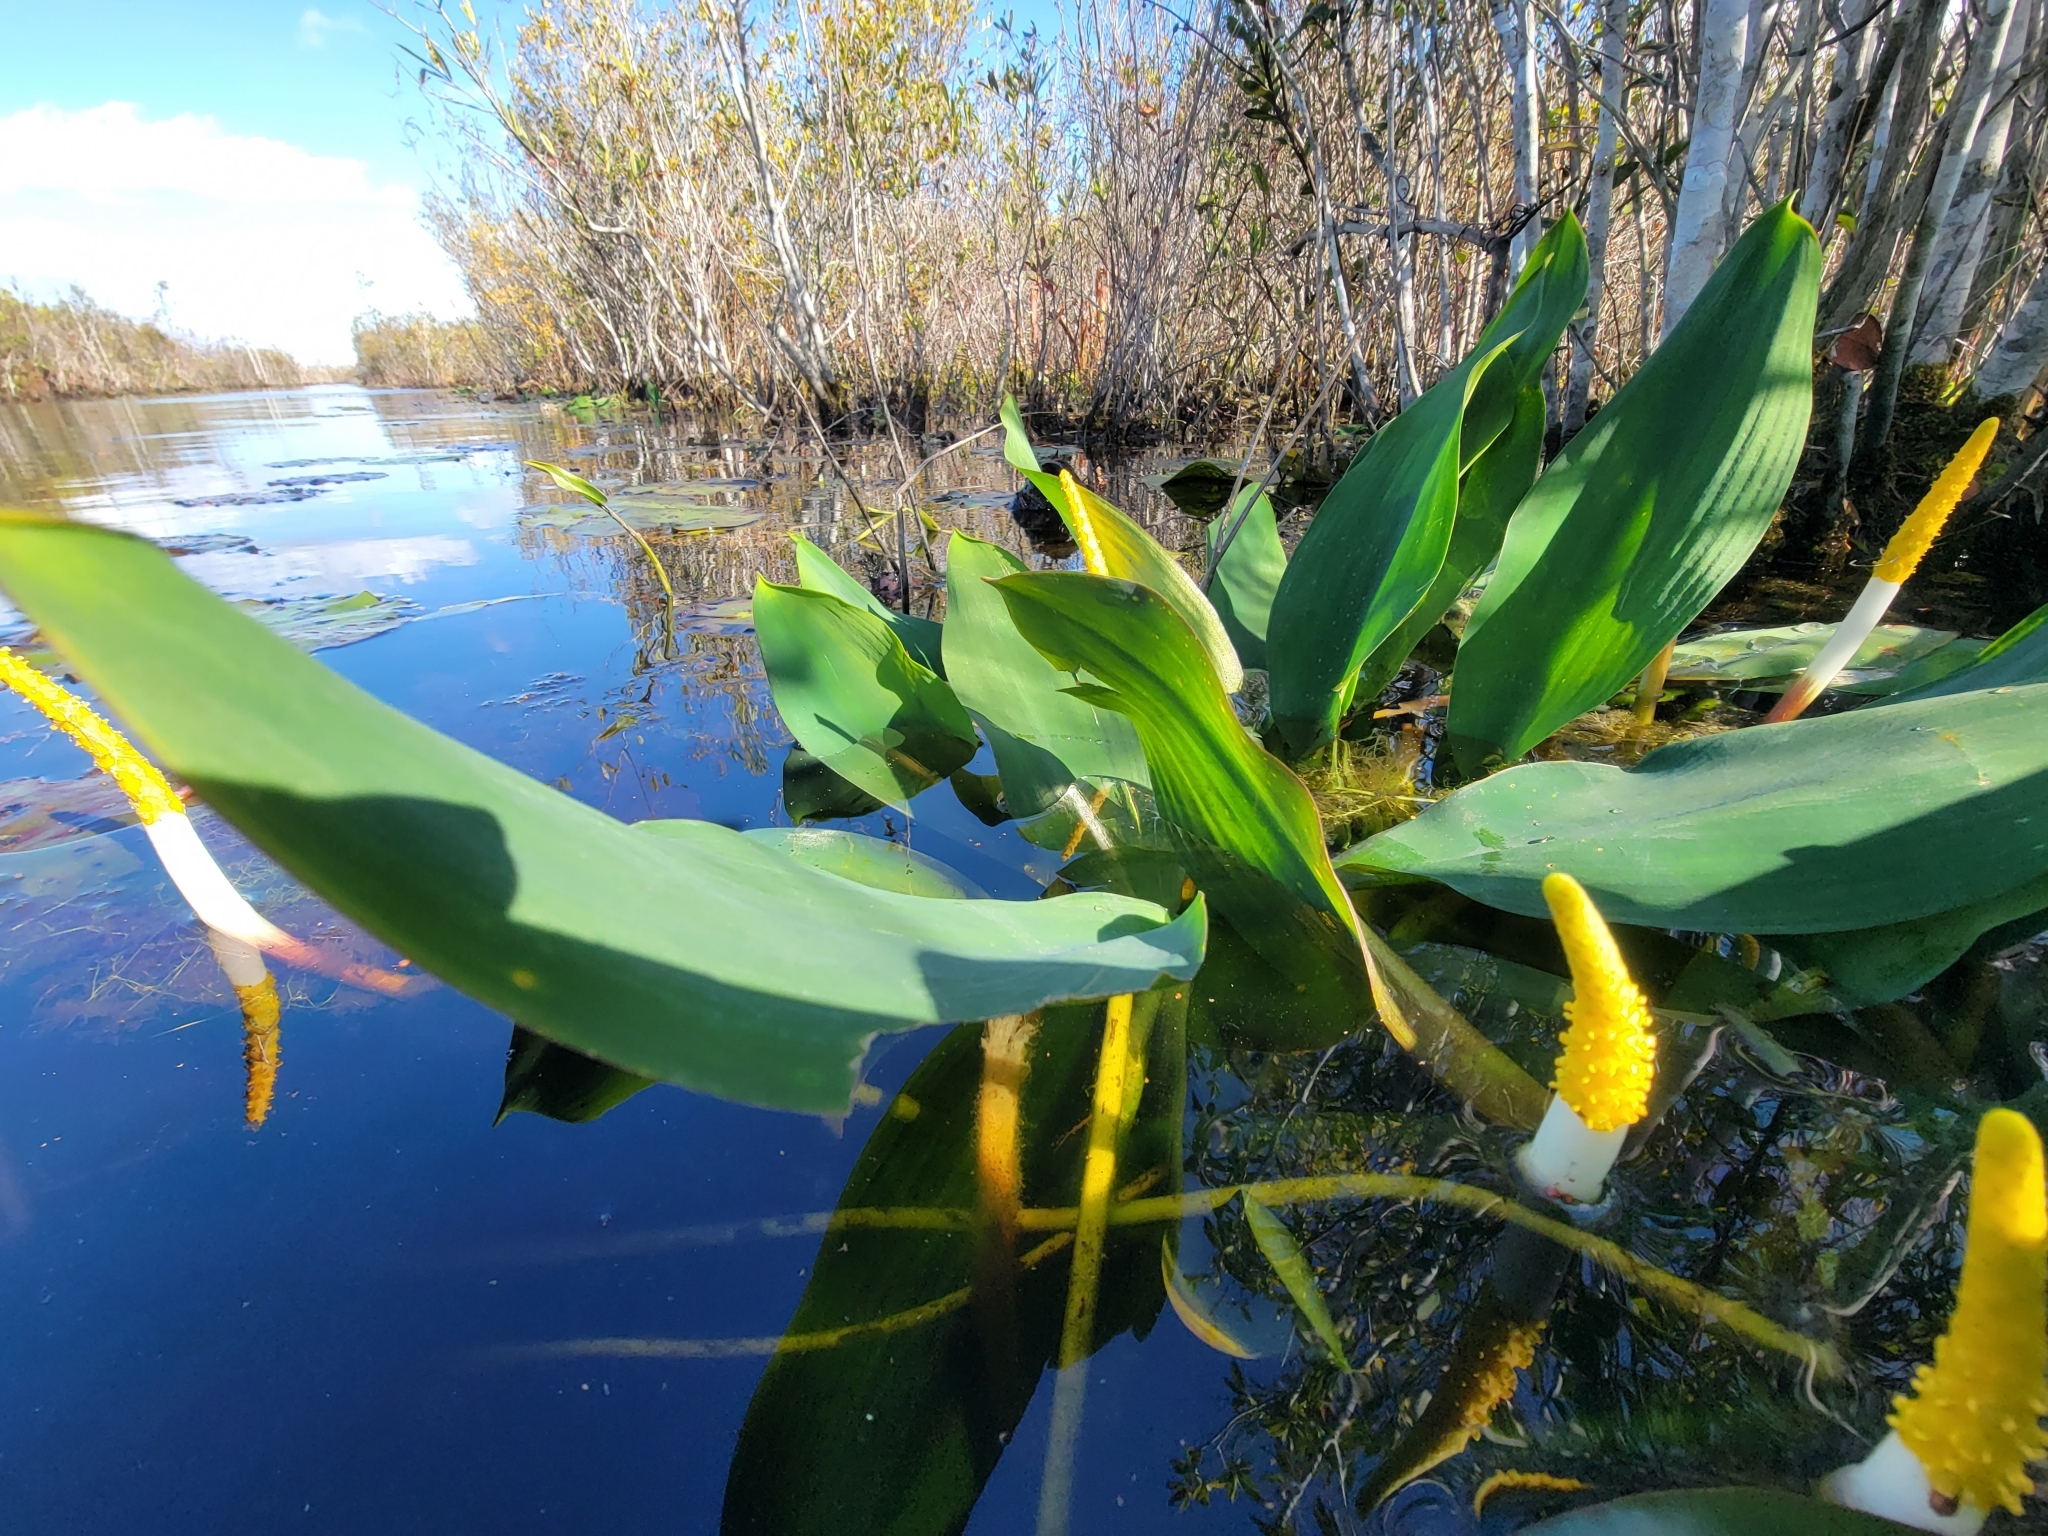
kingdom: Plantae
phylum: Tracheophyta
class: Liliopsida
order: Alismatales
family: Araceae
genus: Orontium
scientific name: Orontium aquaticum
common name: Golden-club
